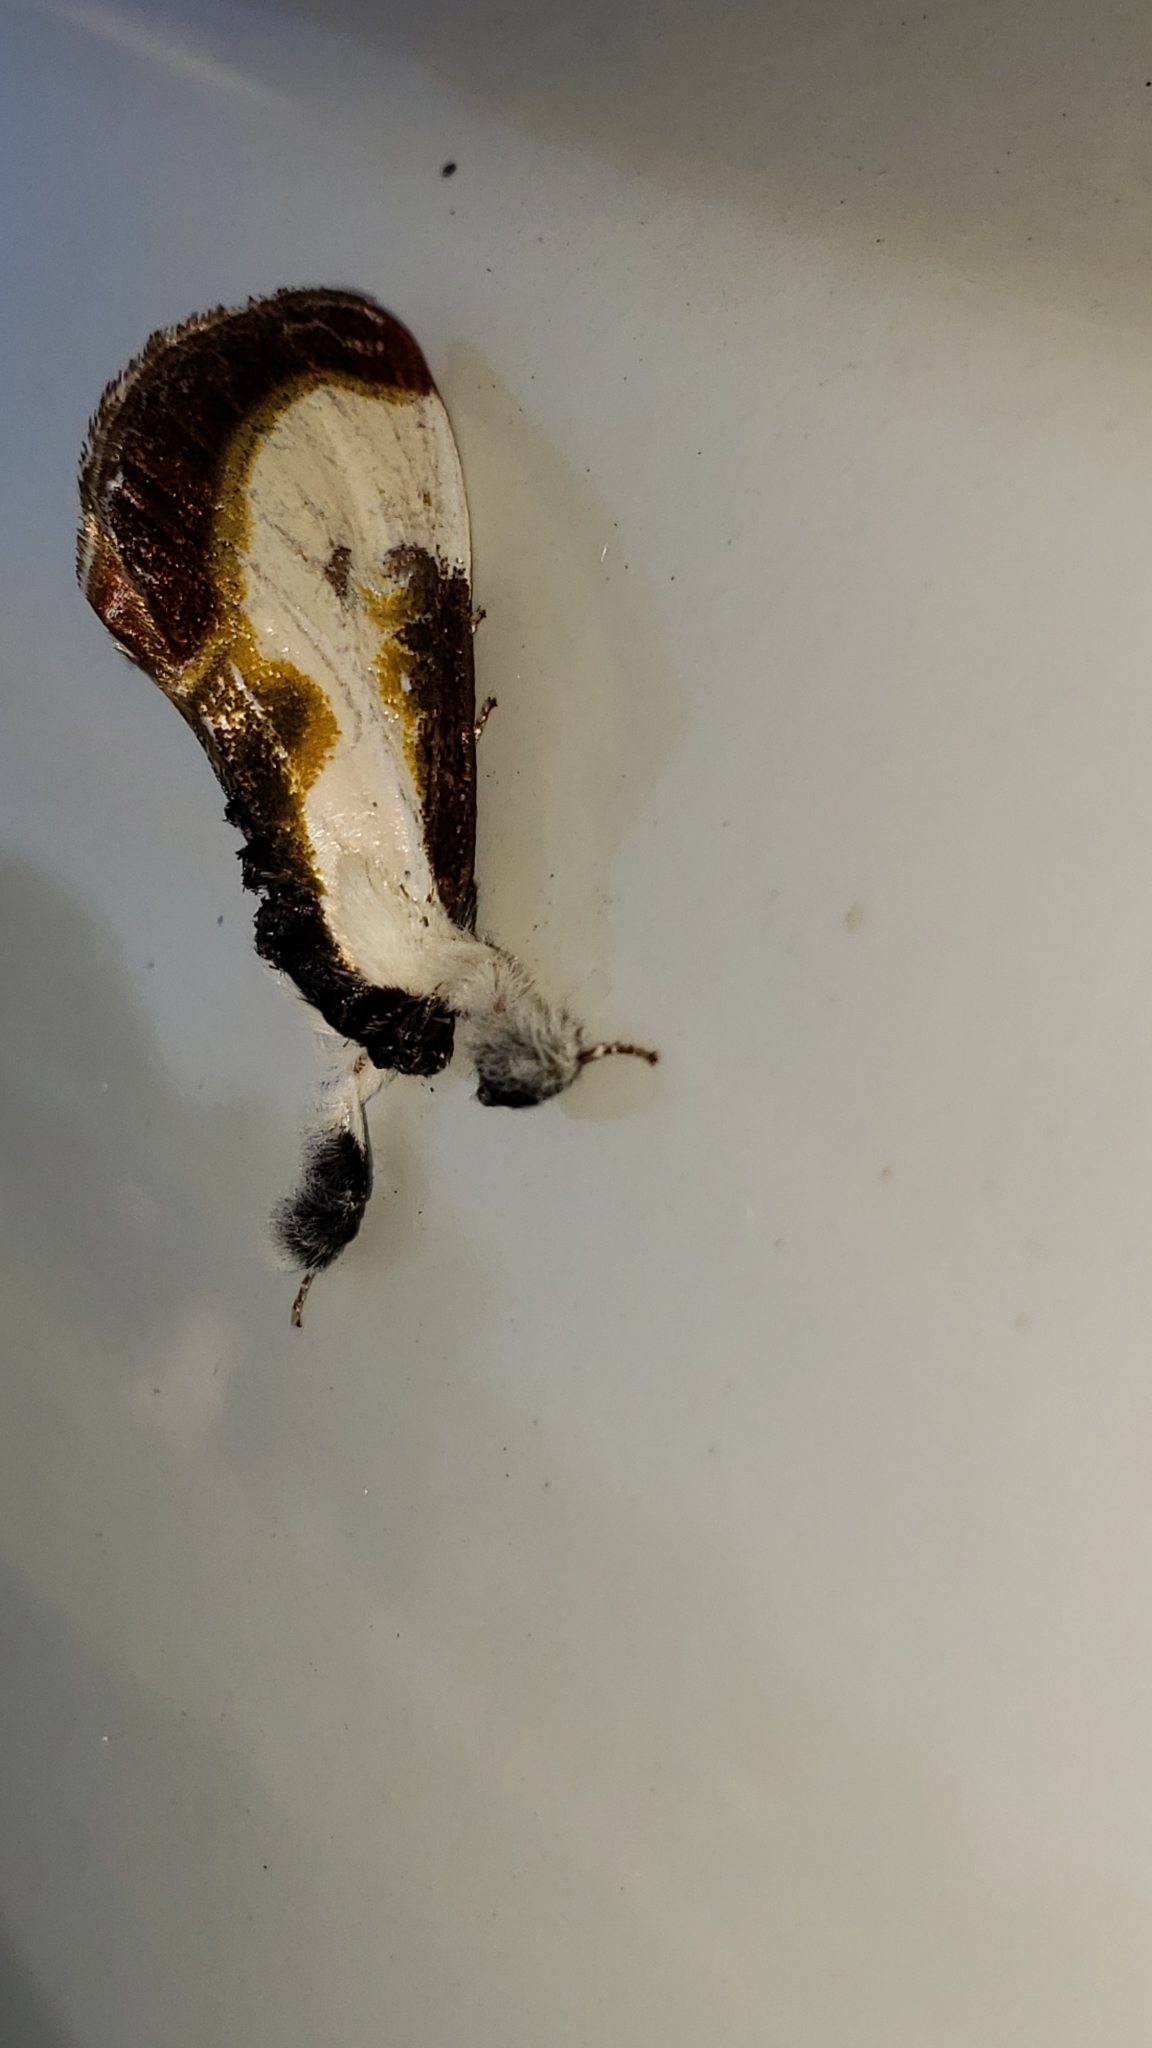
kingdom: Animalia
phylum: Arthropoda
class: Insecta
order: Lepidoptera
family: Noctuidae
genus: Eudryas
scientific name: Eudryas grata
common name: Beautiful wood-nymph
